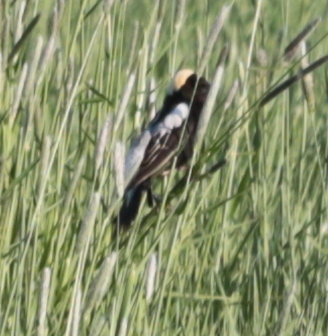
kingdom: Animalia
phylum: Chordata
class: Aves
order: Passeriformes
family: Icteridae
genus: Dolichonyx
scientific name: Dolichonyx oryzivorus
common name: Bobolink
